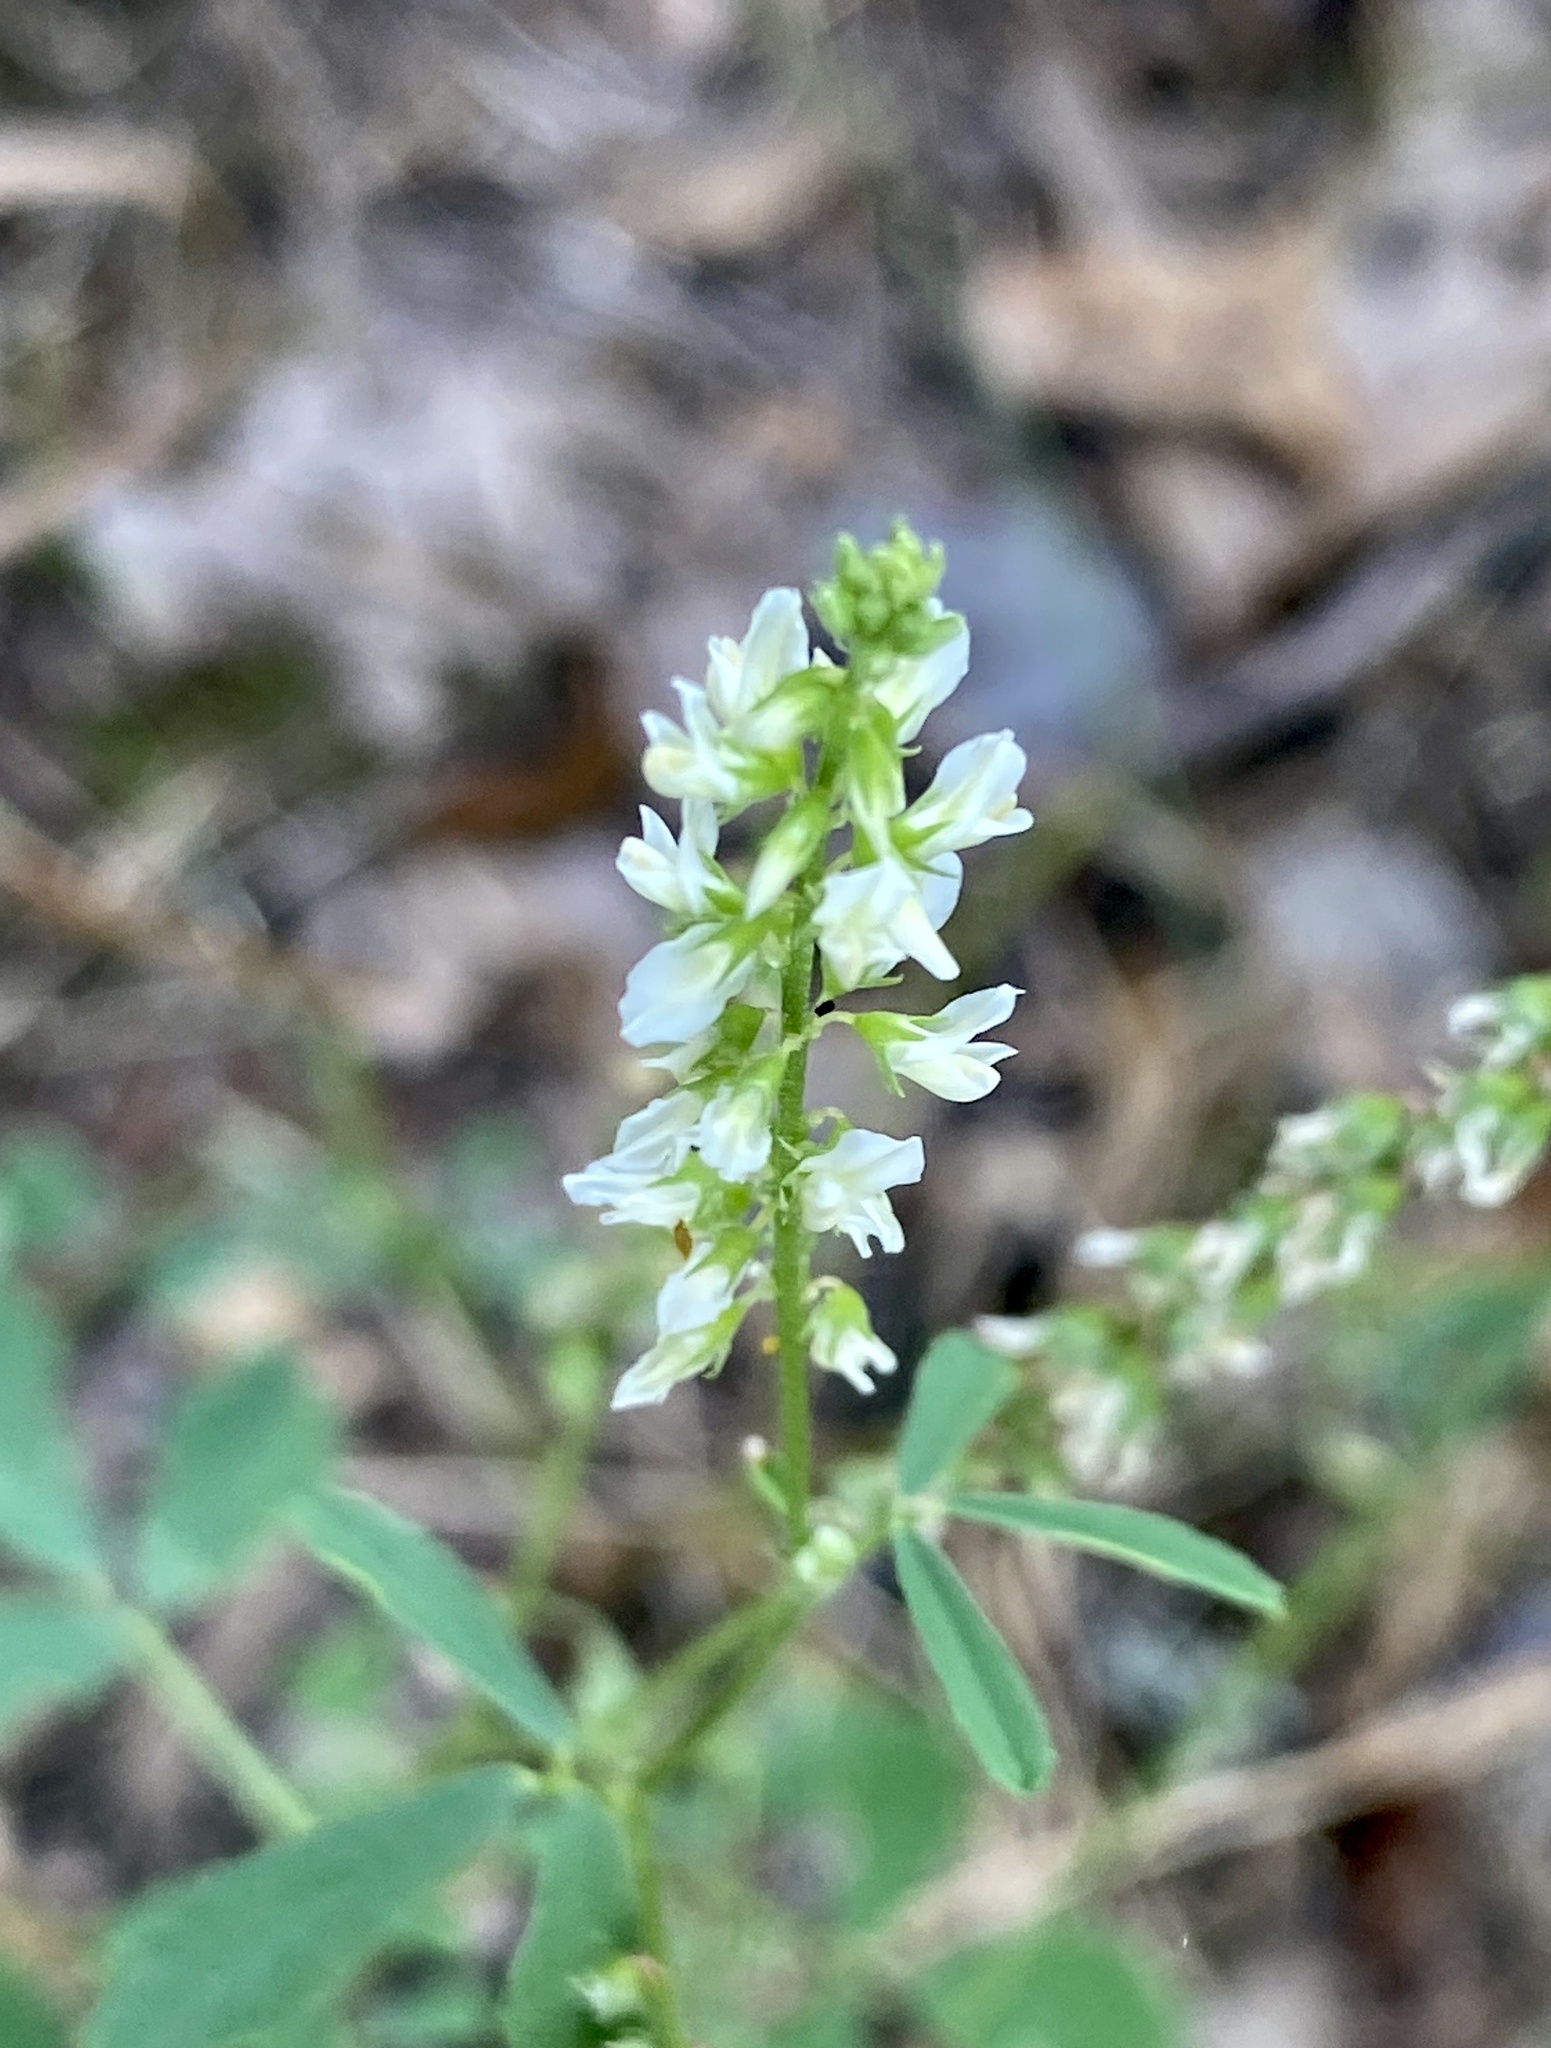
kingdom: Plantae
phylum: Tracheophyta
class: Magnoliopsida
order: Fabales
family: Fabaceae
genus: Melilotus
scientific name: Melilotus albus
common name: White melilot
